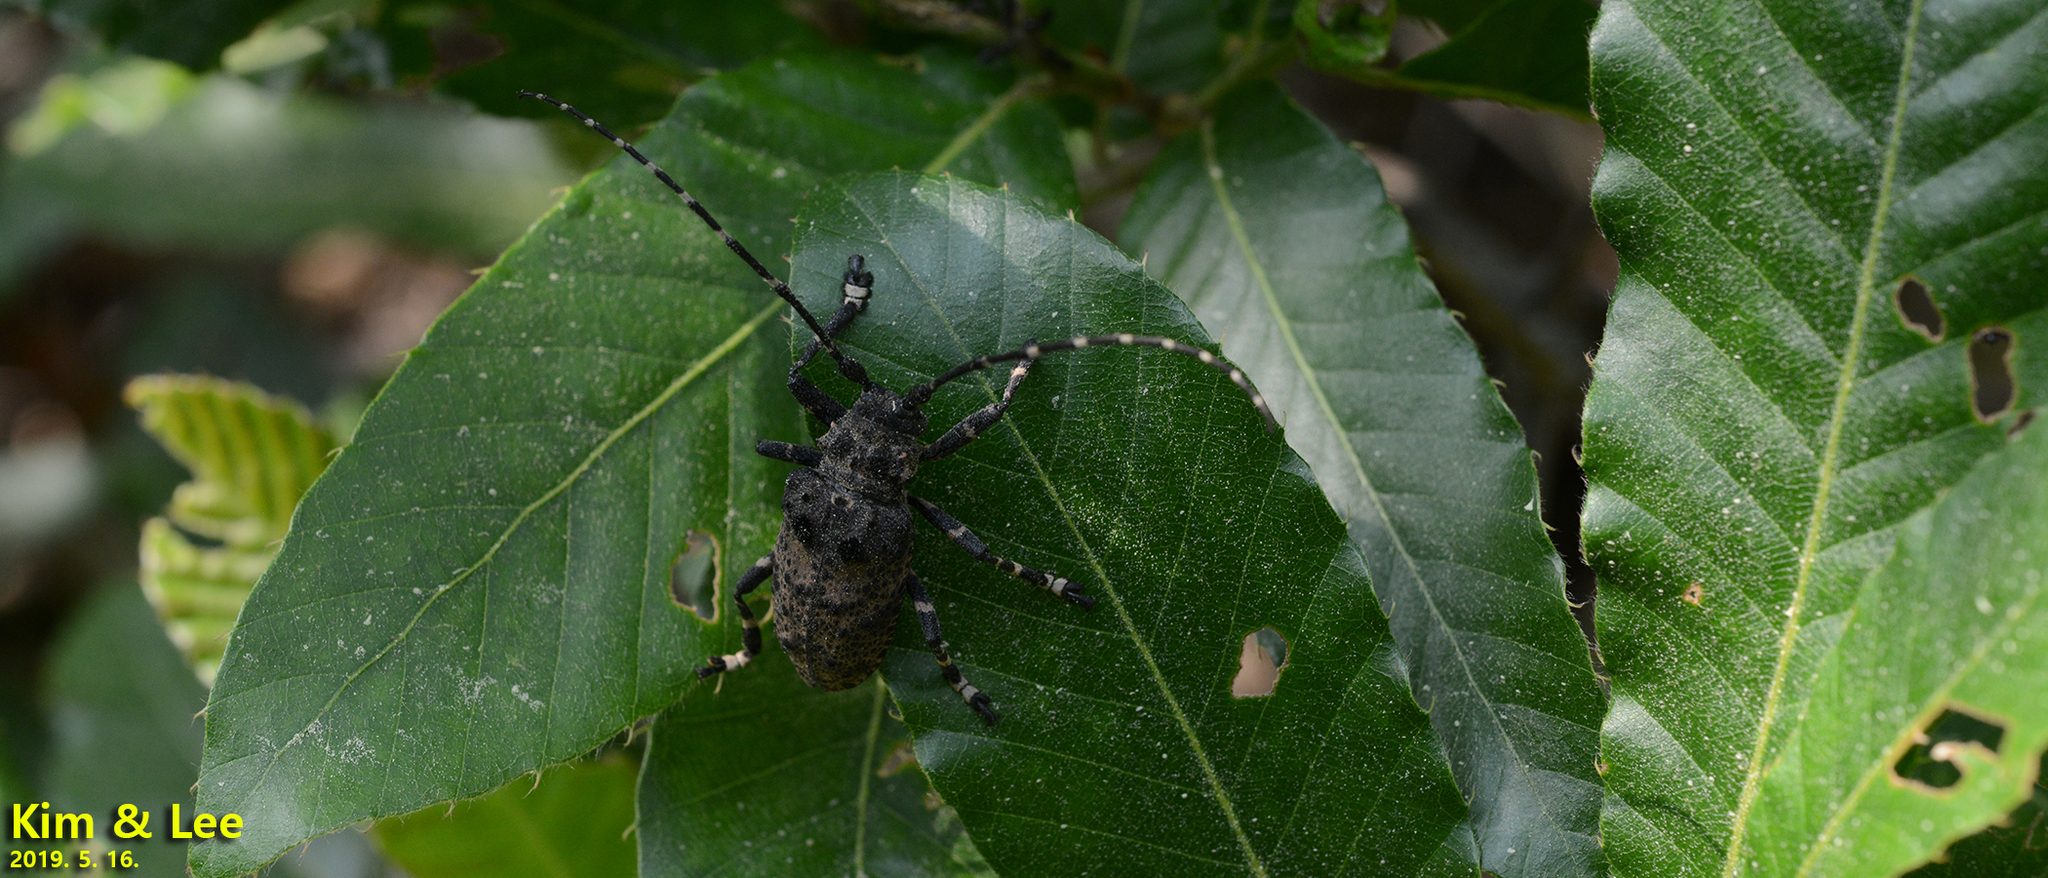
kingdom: Animalia
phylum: Arthropoda
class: Insecta
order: Coleoptera
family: Cerambycidae
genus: Moechotypa
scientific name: Moechotypa diphysis
